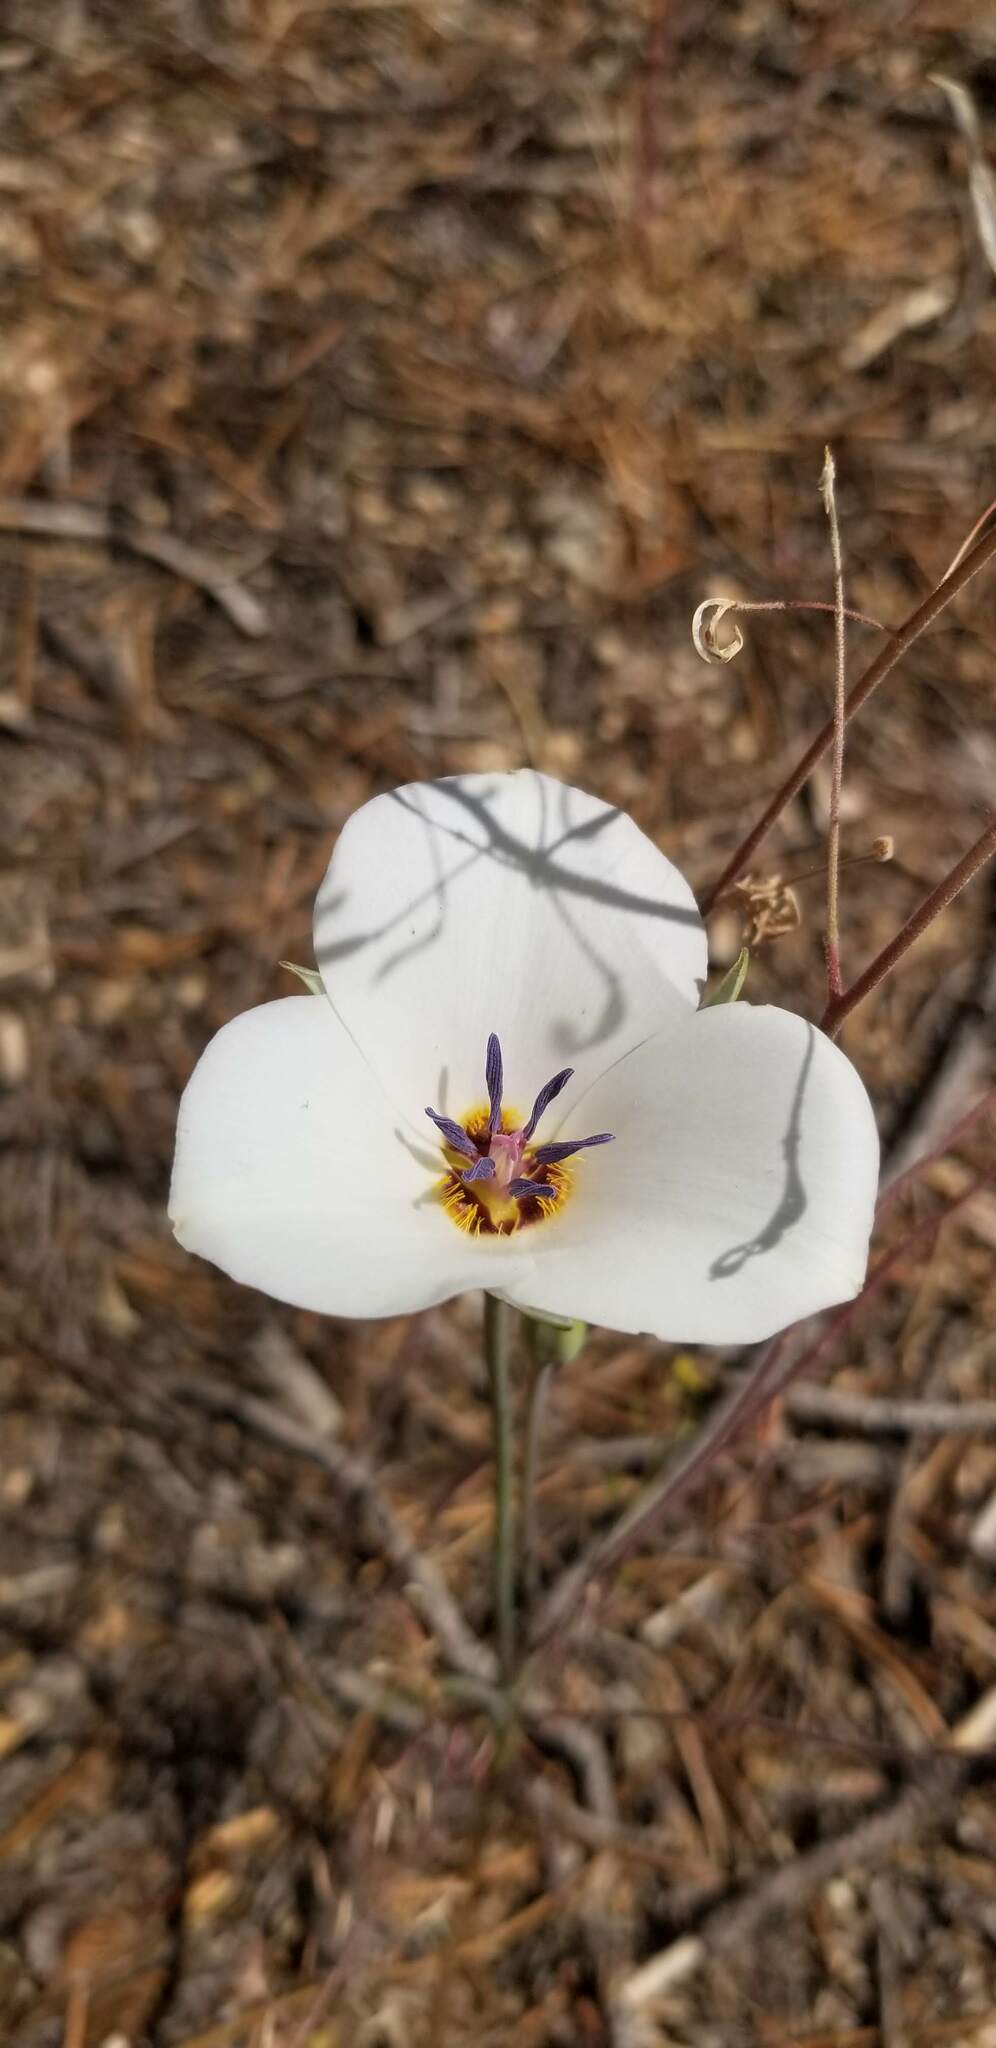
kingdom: Plantae
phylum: Tracheophyta
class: Liliopsida
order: Liliales
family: Liliaceae
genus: Calochortus
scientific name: Calochortus invenustus
